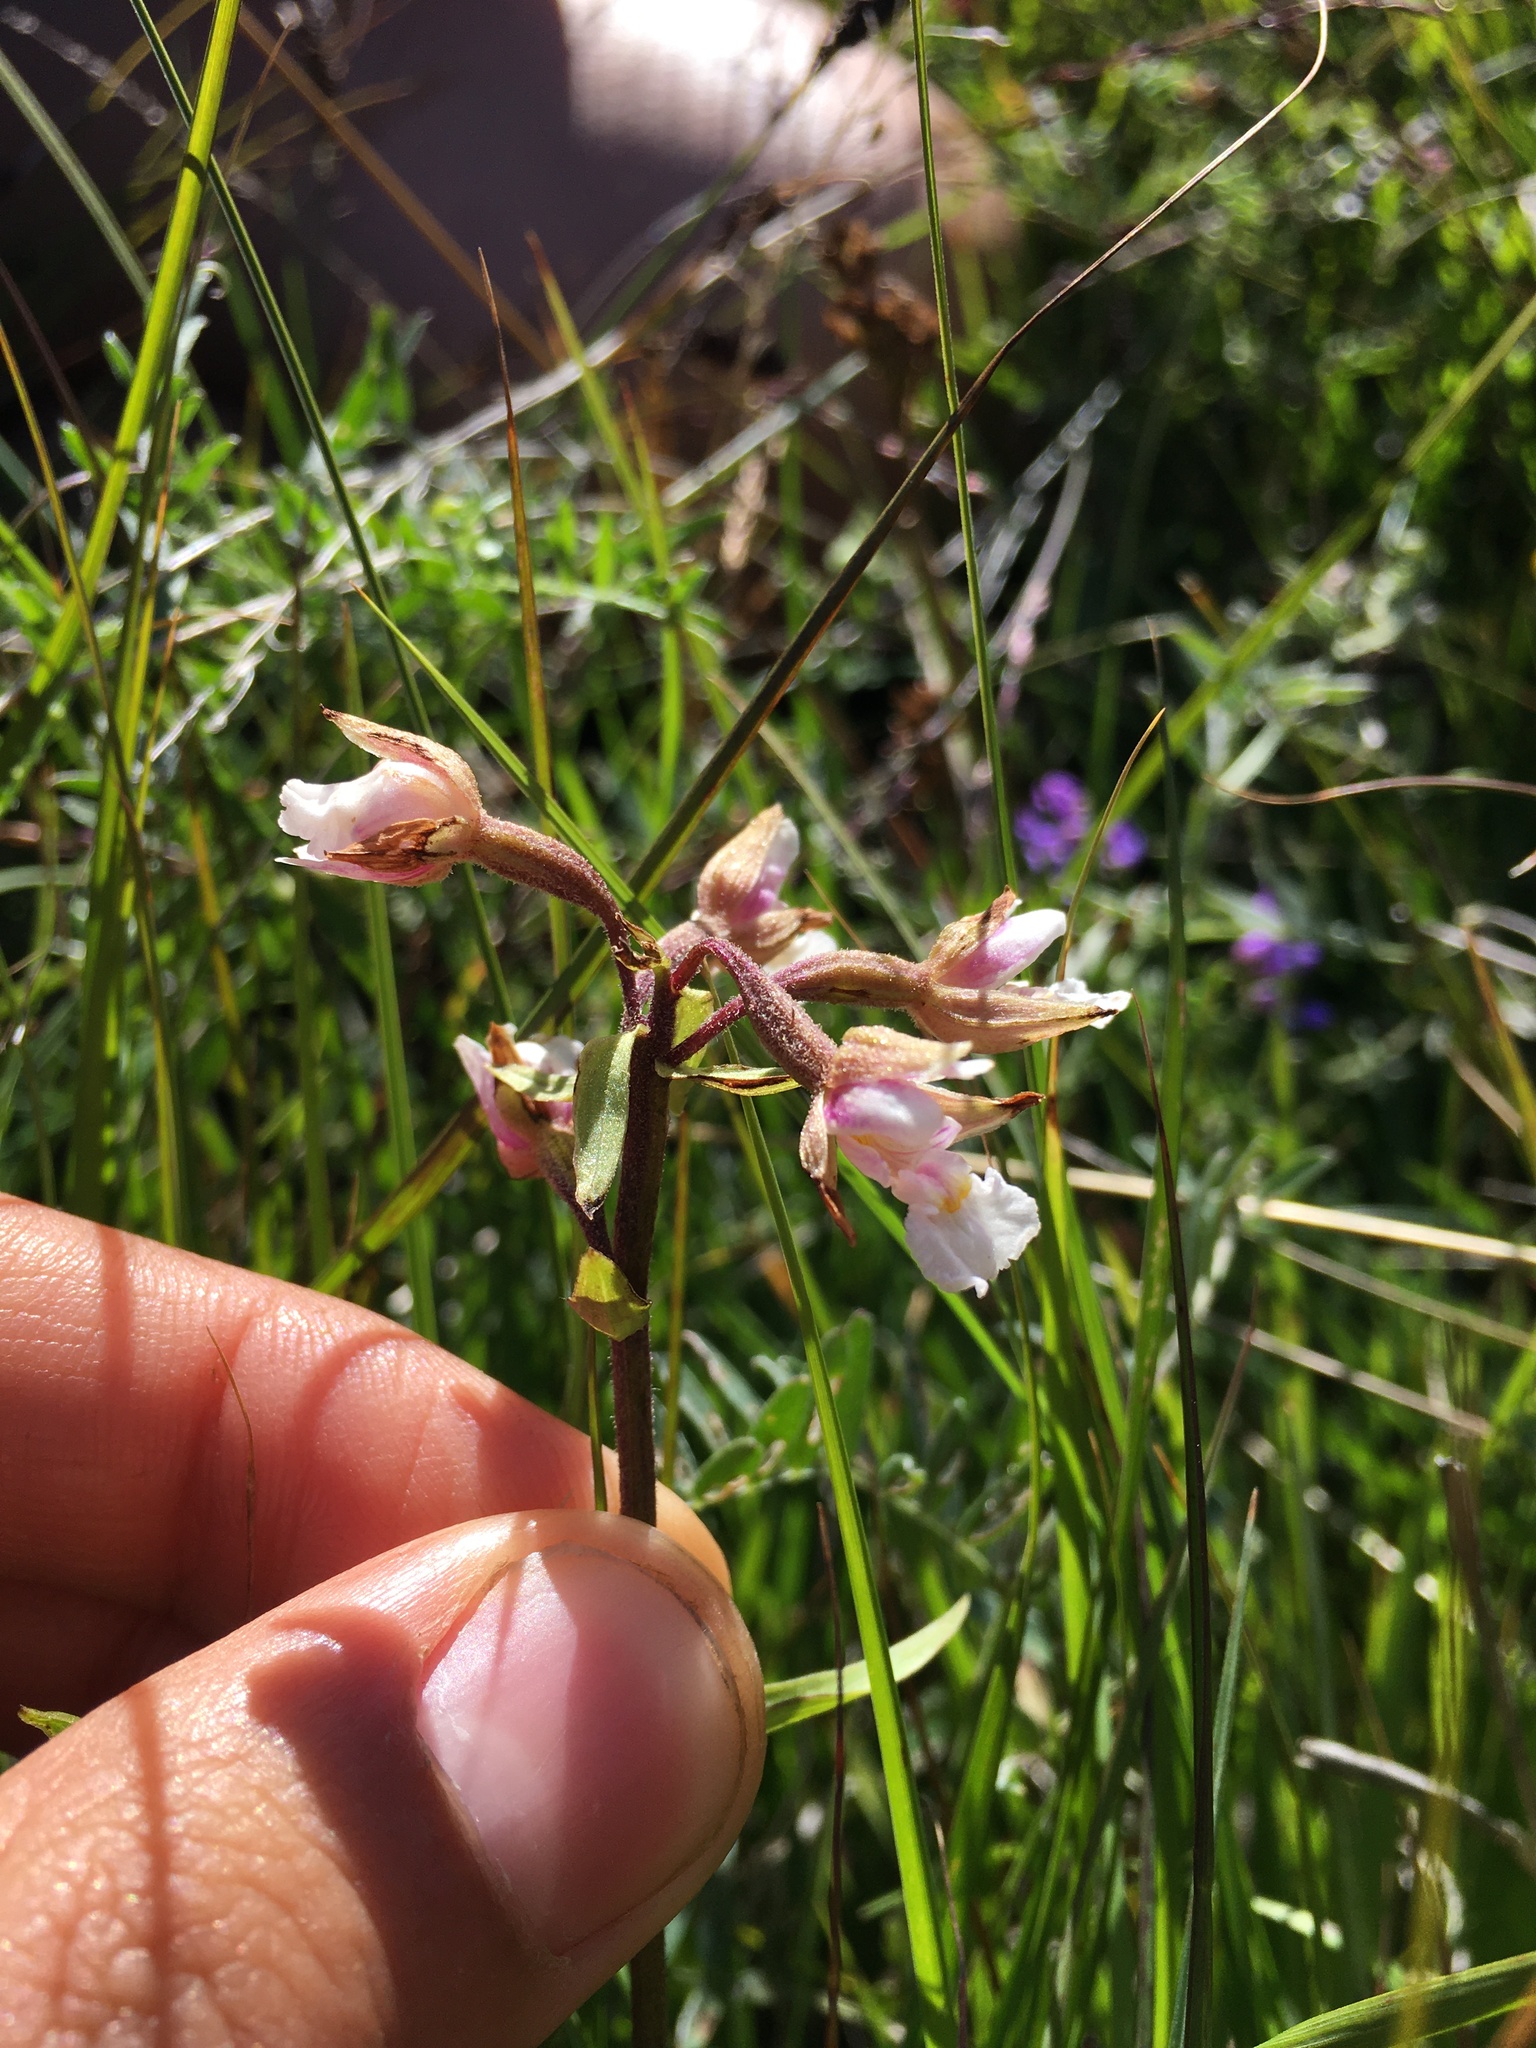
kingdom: Plantae
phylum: Tracheophyta
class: Liliopsida
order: Asparagales
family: Orchidaceae
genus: Epipactis
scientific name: Epipactis palustris
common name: Marsh helleborine
